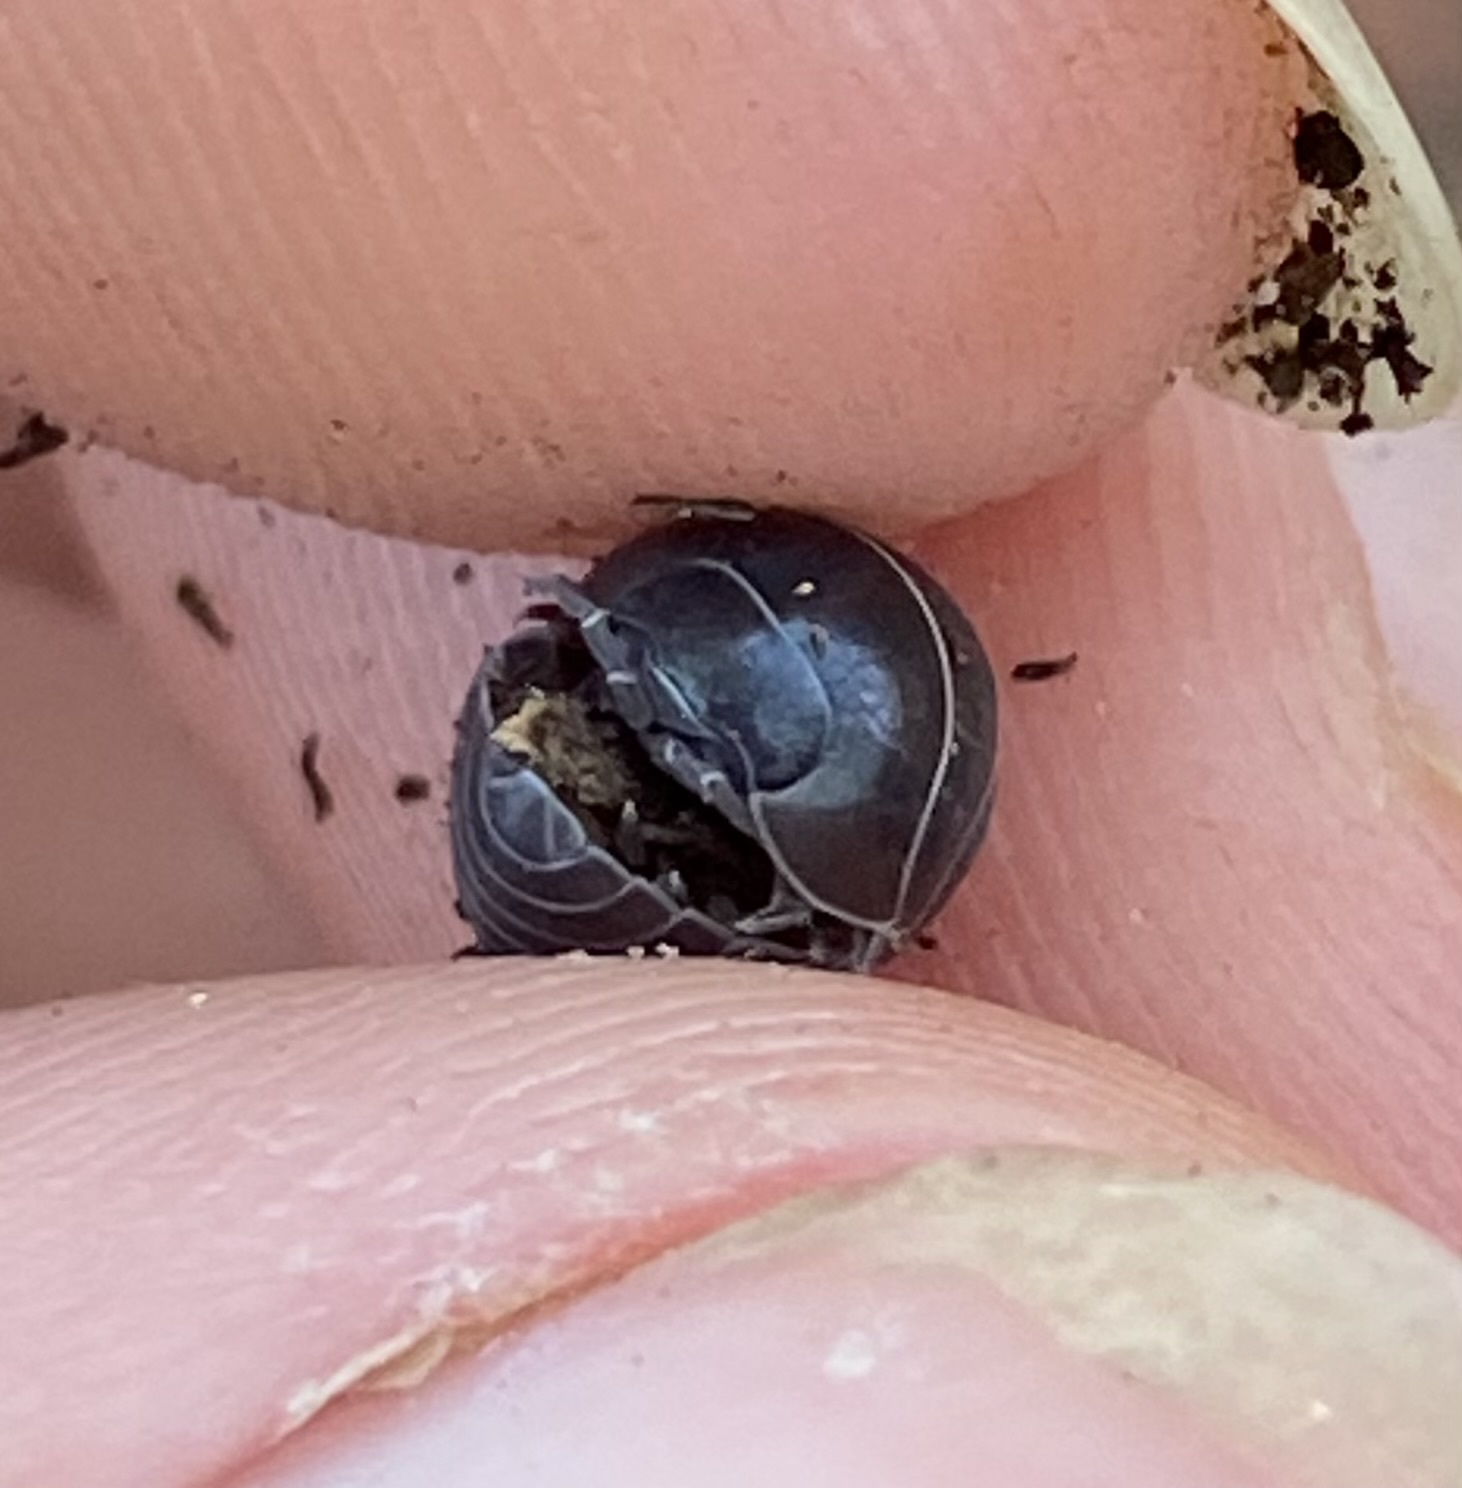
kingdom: Animalia
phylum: Arthropoda
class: Malacostraca
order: Isopoda
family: Armadillidiidae
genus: Armadillidium
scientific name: Armadillidium vulgare
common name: Common pill woodlouse
